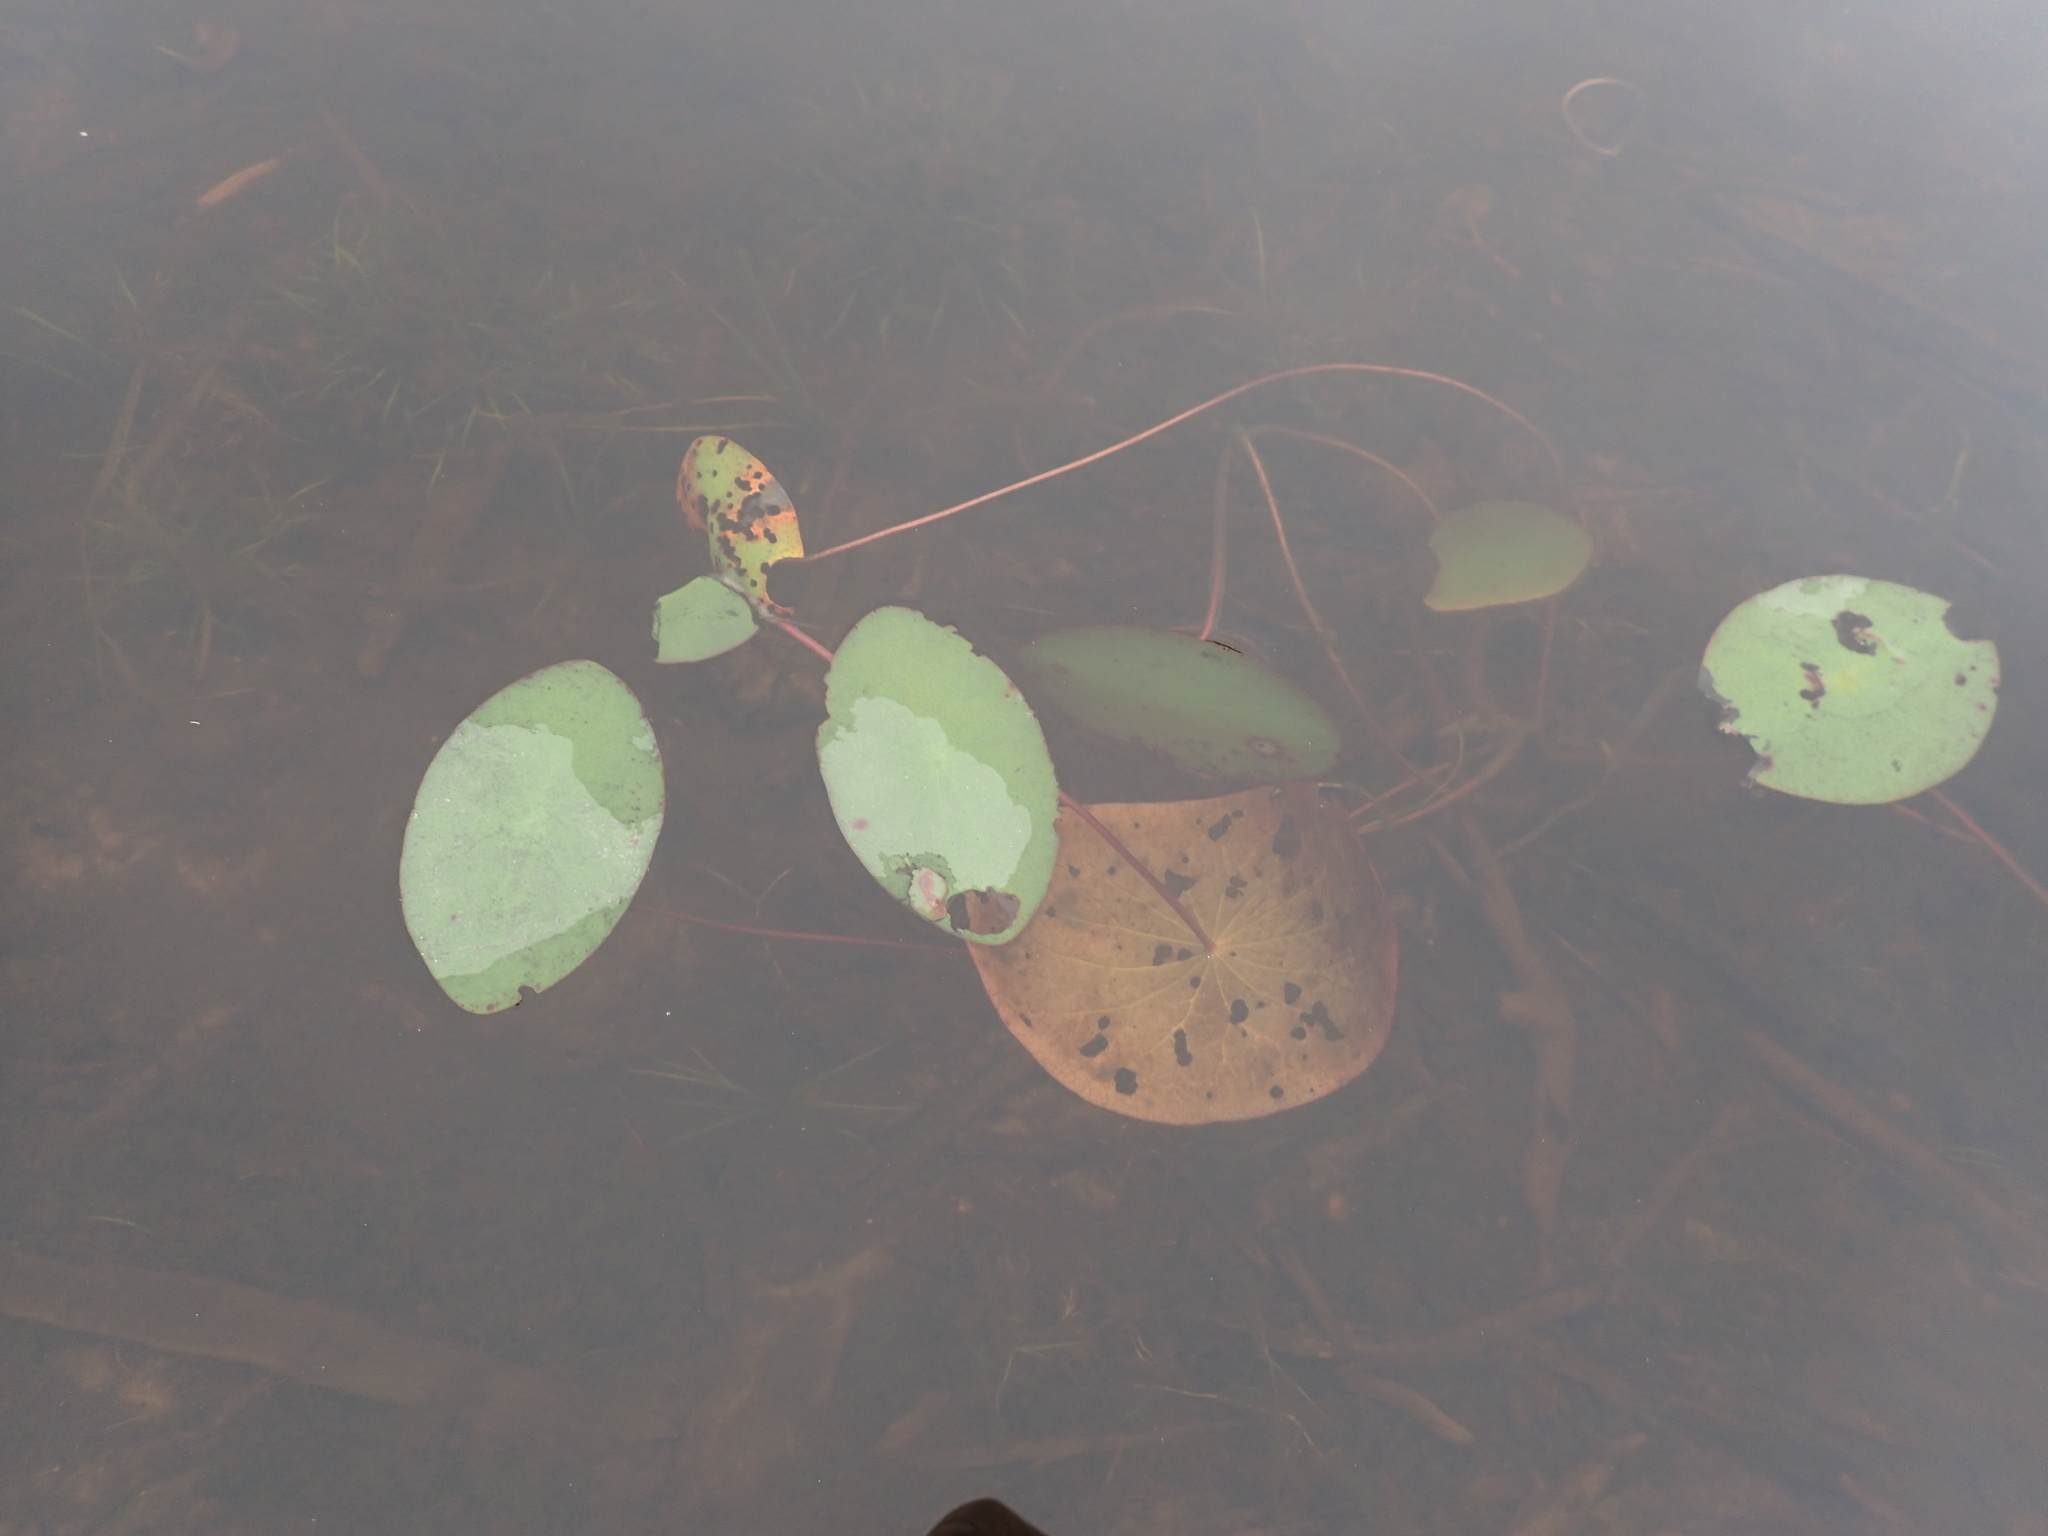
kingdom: Plantae
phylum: Tracheophyta
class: Magnoliopsida
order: Nymphaeales
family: Cabombaceae
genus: Brasenia
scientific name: Brasenia schreberi
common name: Water-shield
